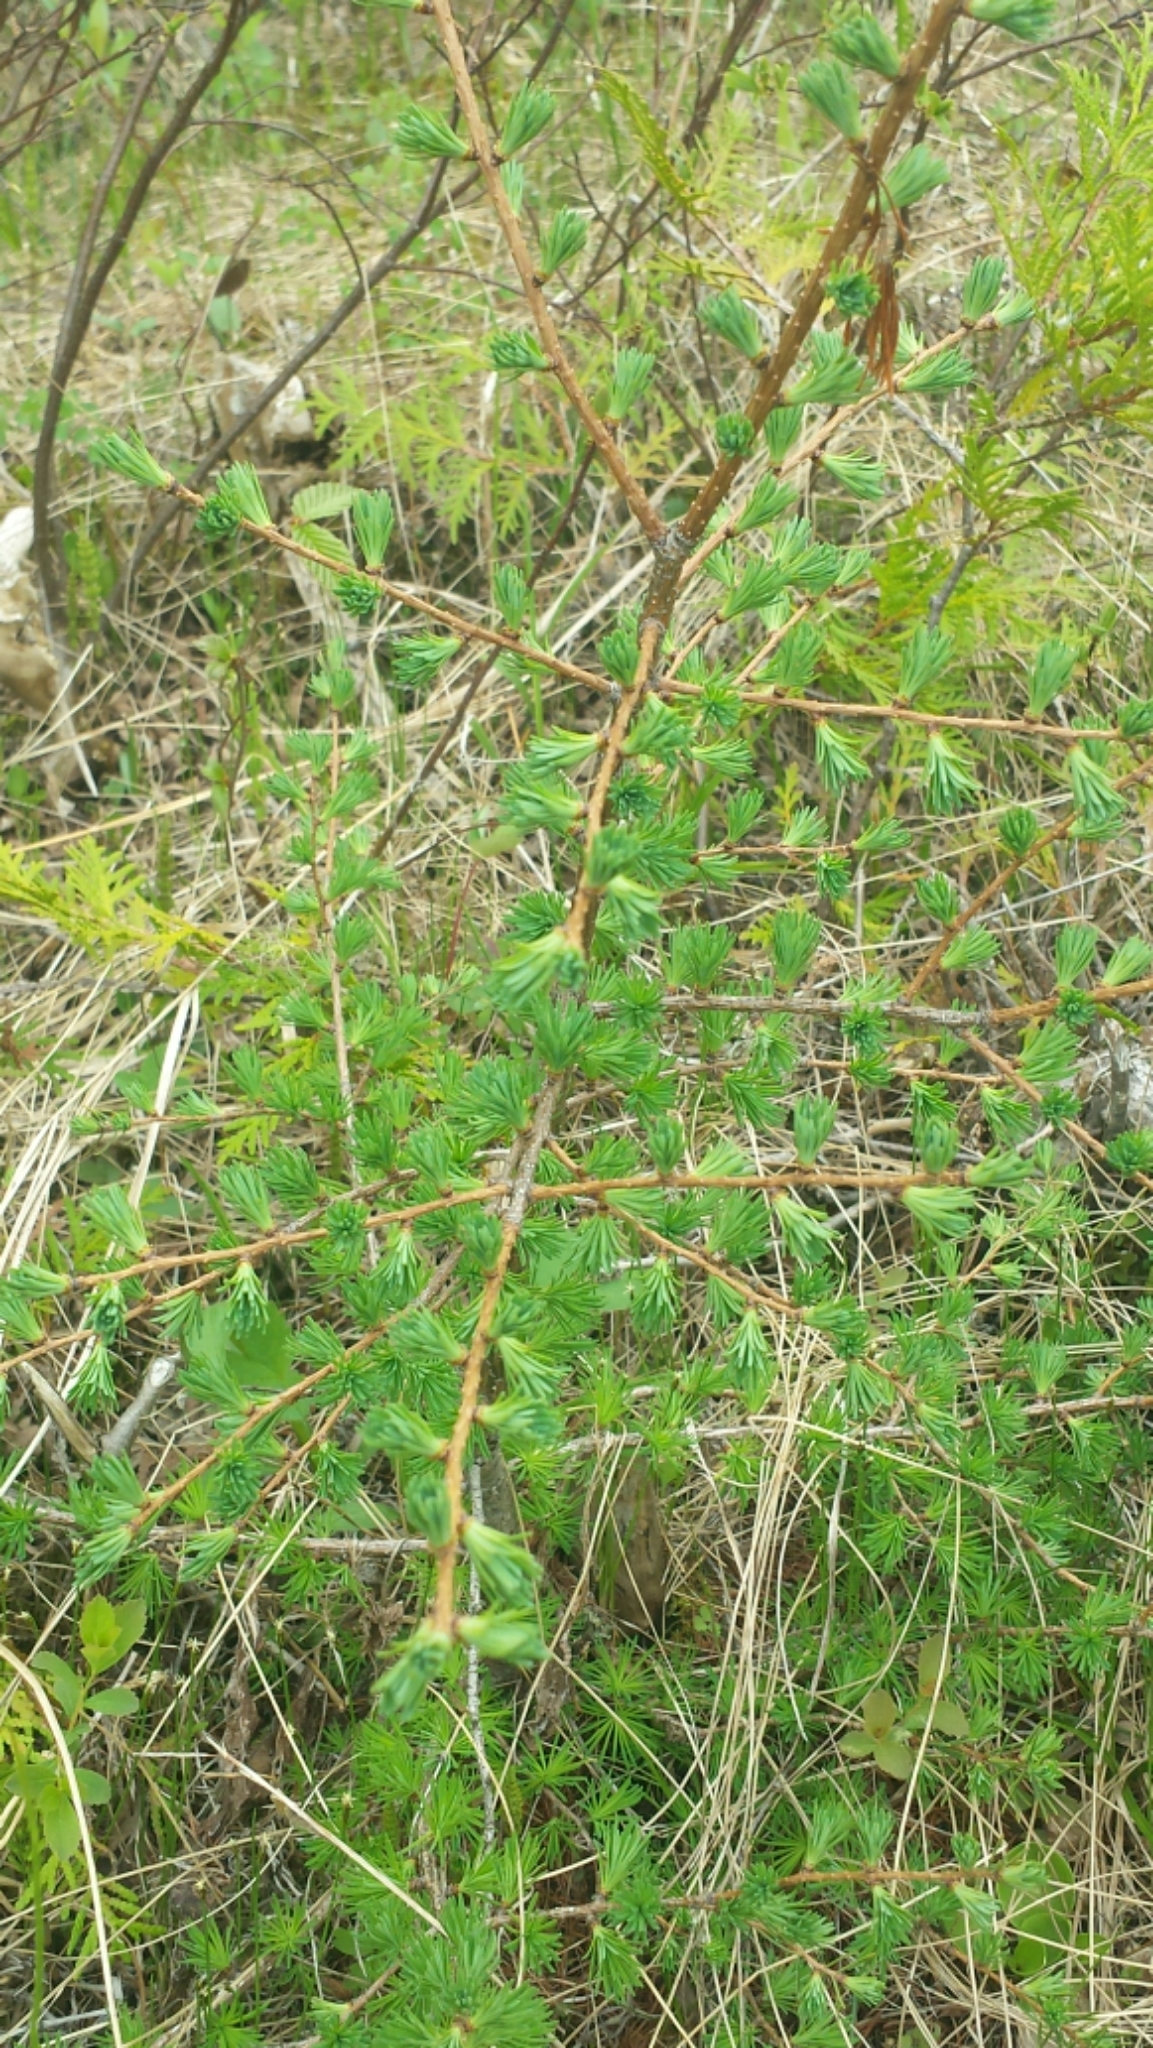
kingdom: Plantae
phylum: Tracheophyta
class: Pinopsida
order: Pinales
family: Pinaceae
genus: Larix
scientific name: Larix laricina
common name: American larch
